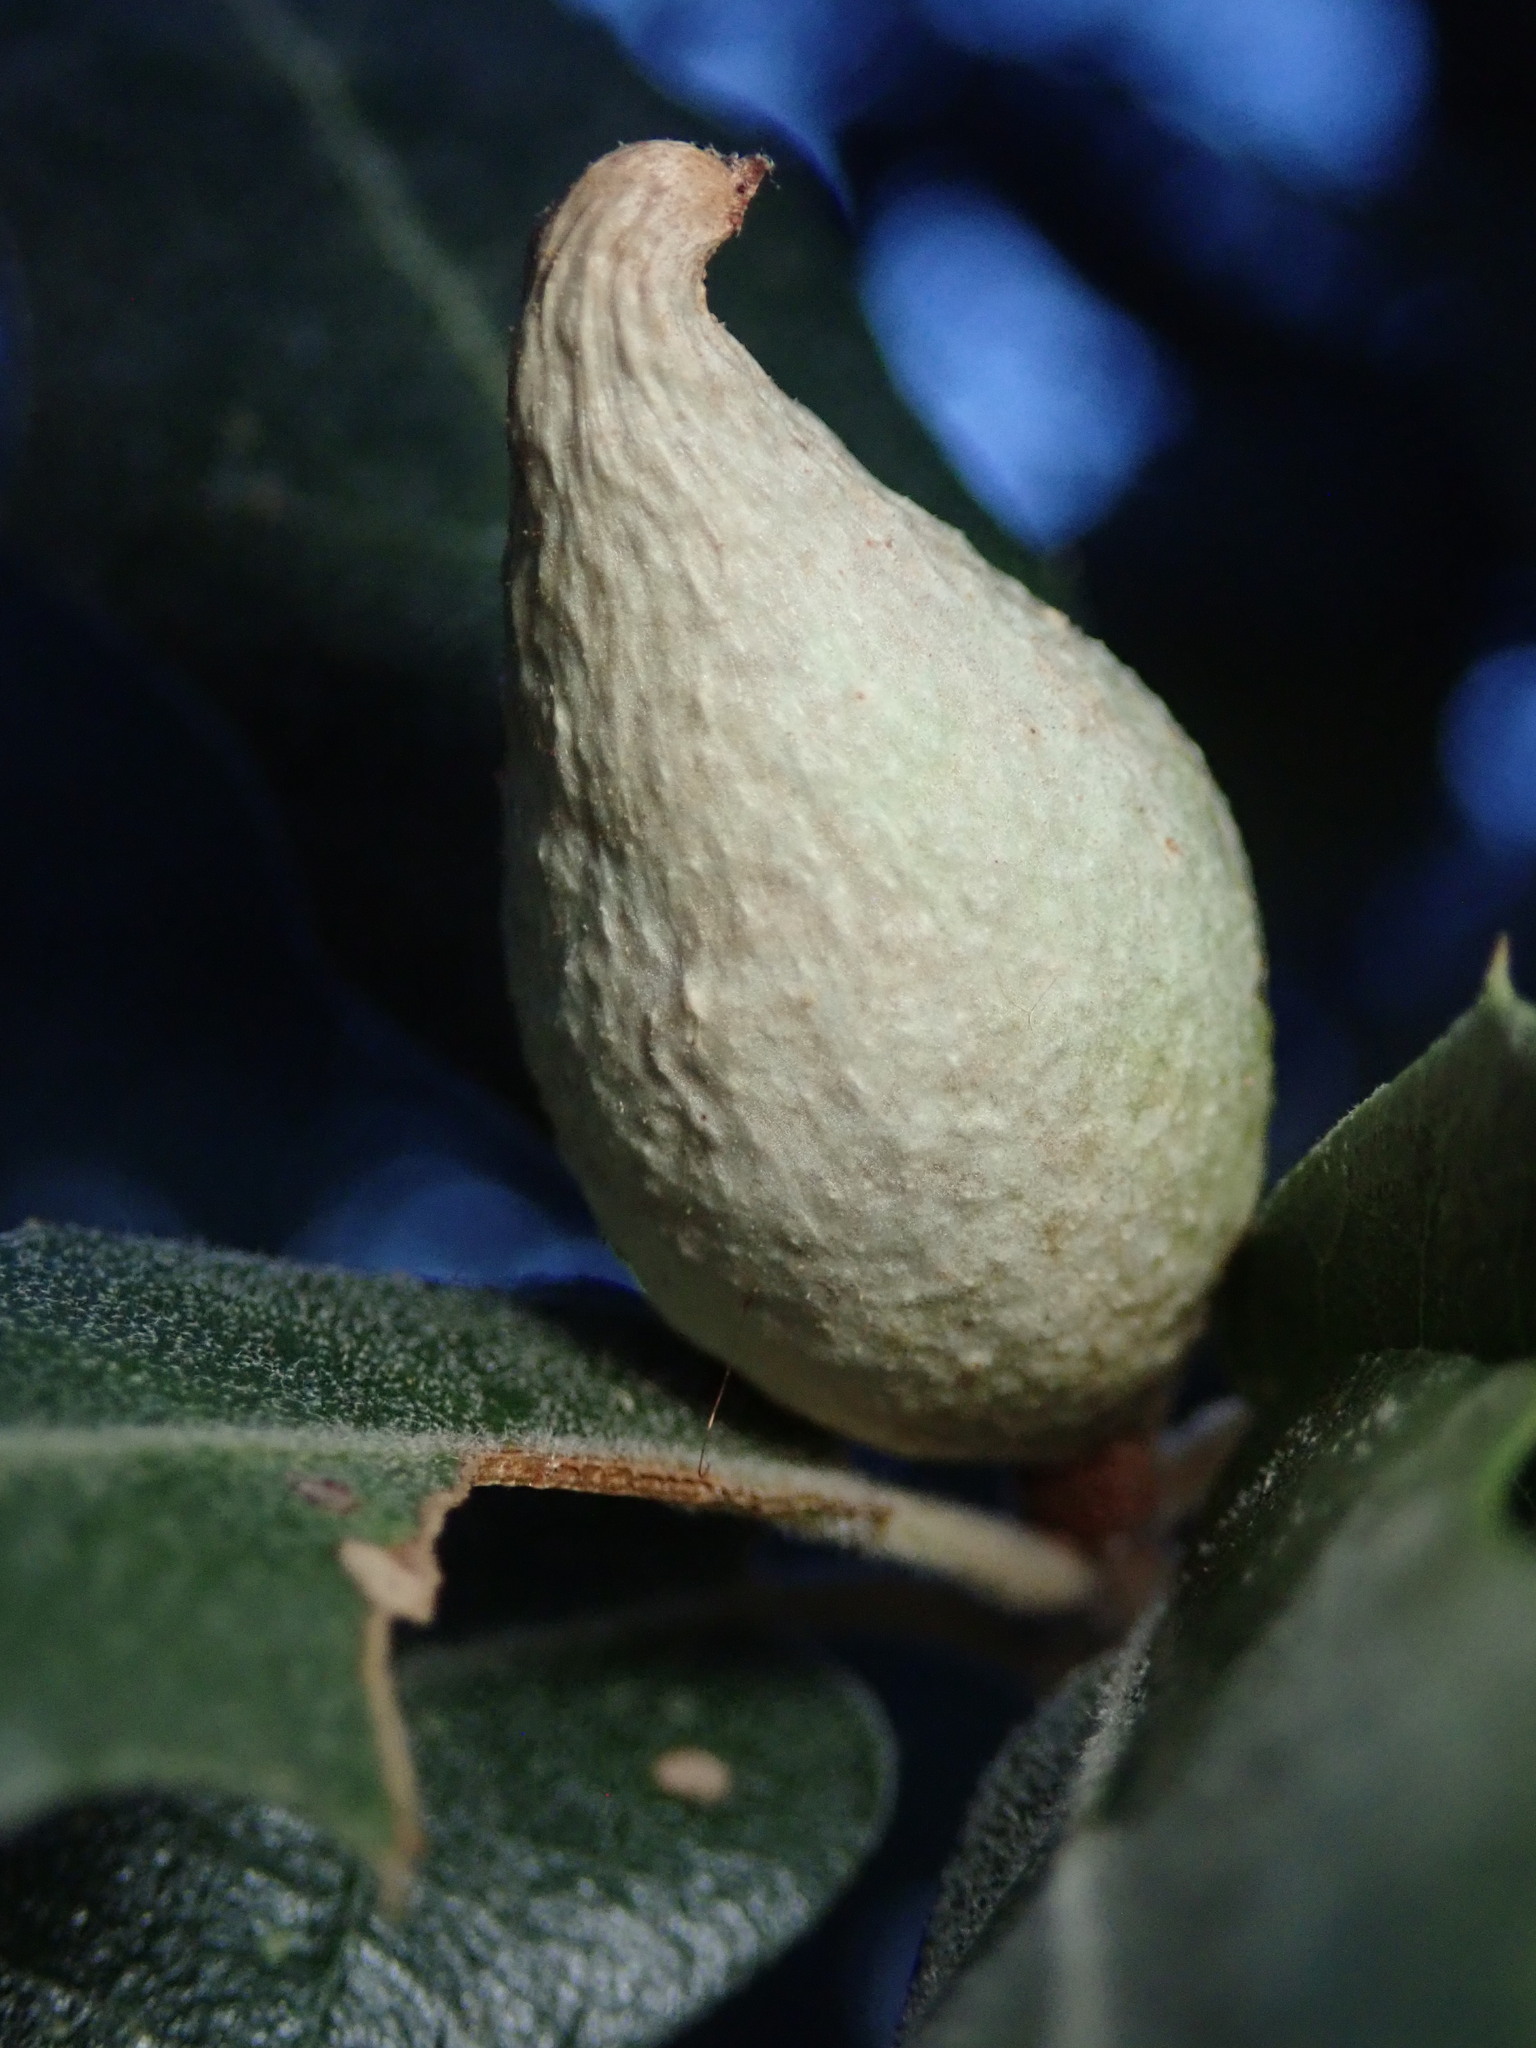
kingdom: Animalia
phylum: Arthropoda
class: Insecta
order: Hymenoptera
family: Cynipidae
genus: Amphibolips
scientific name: Amphibolips fusus
